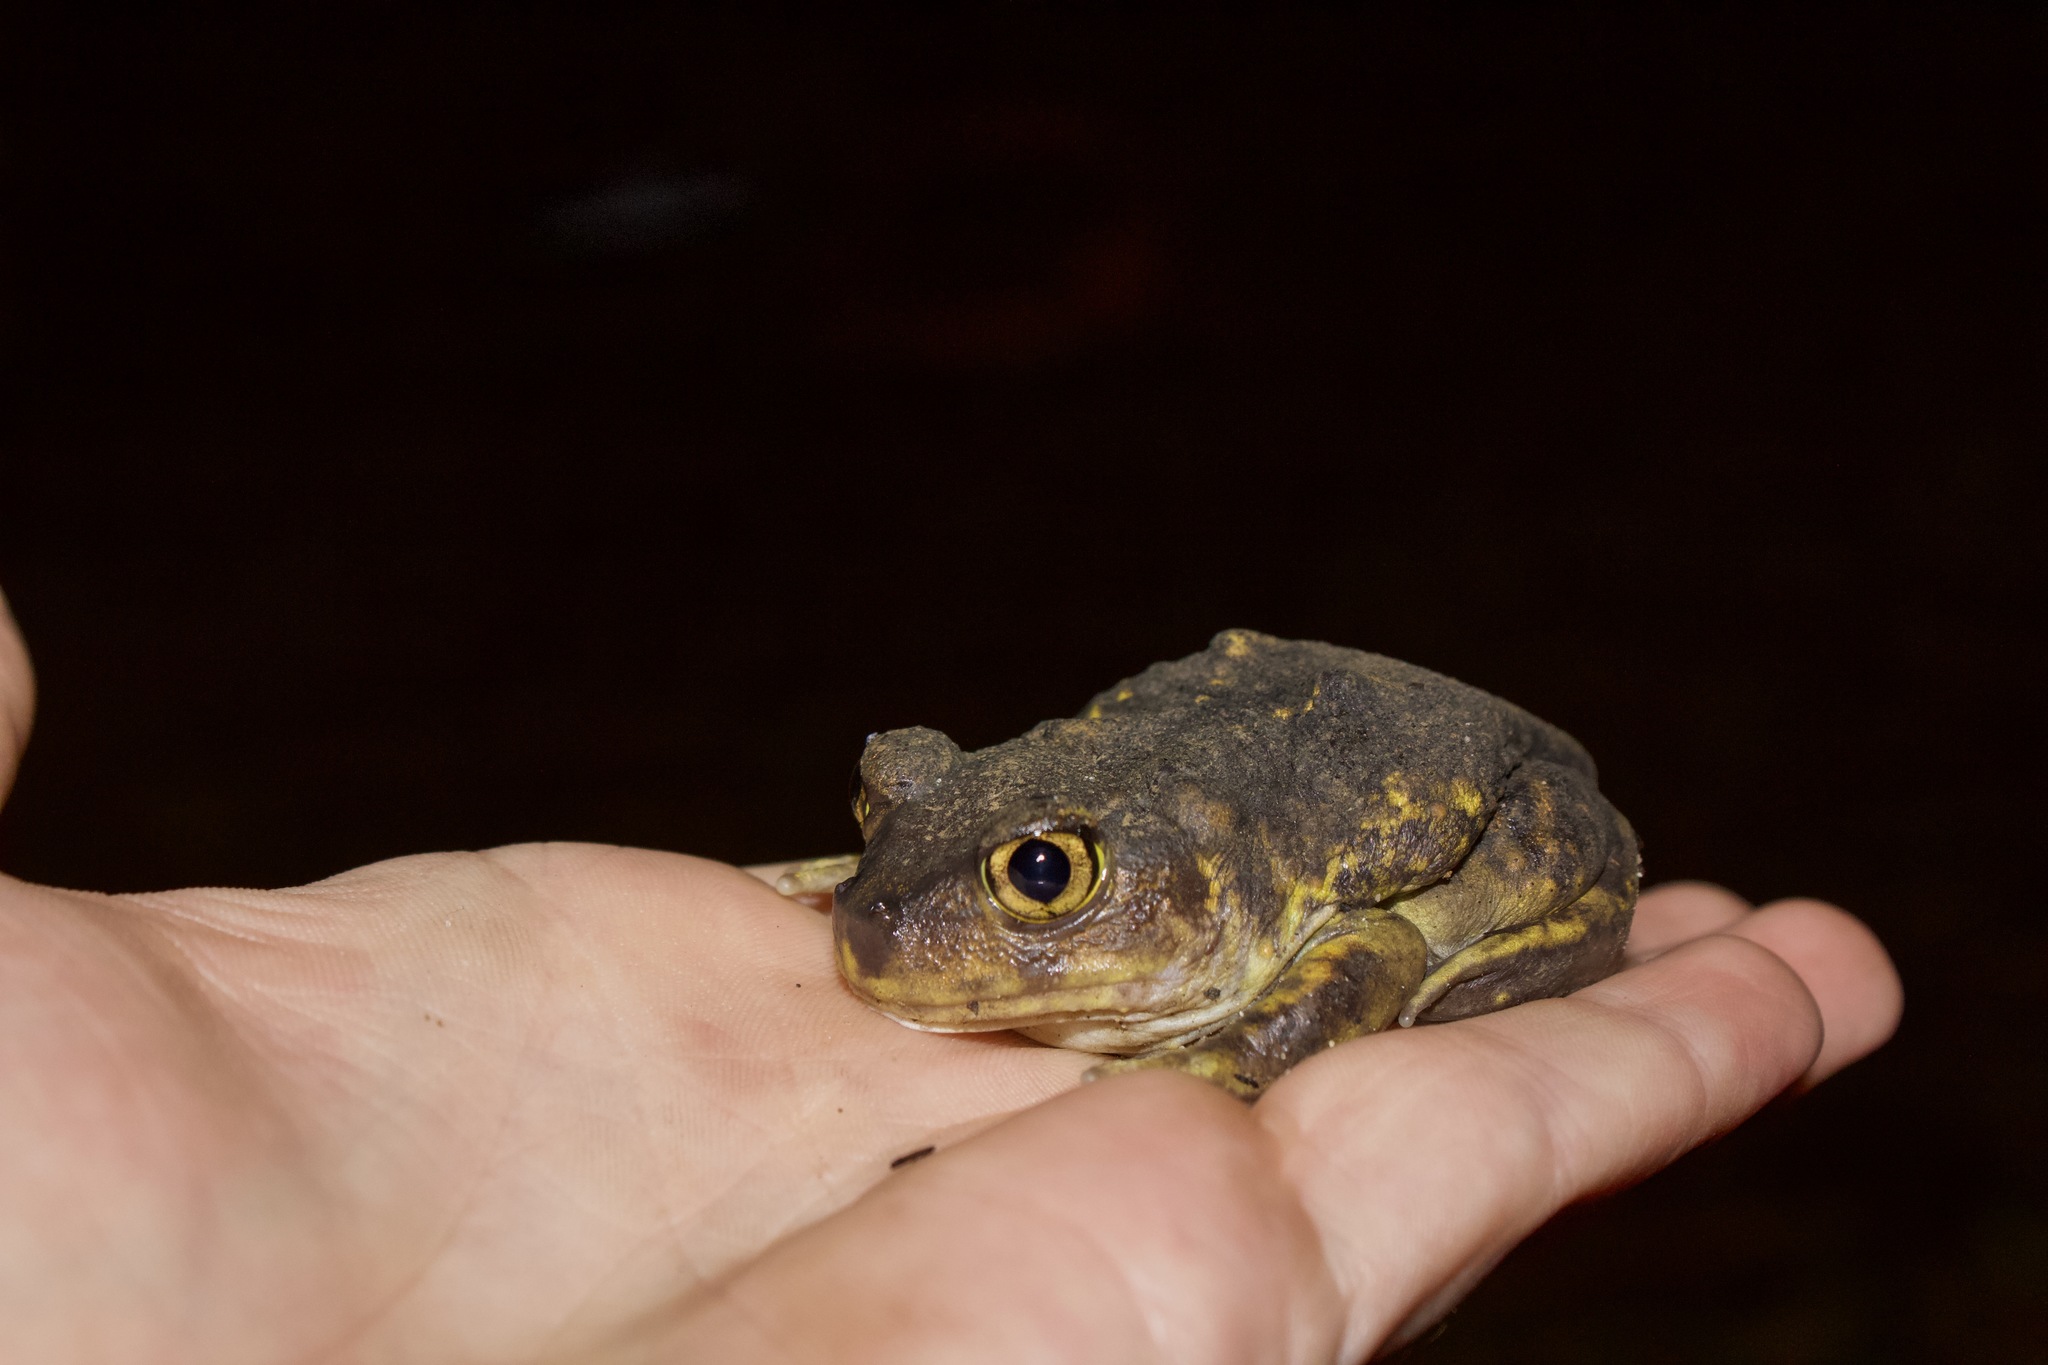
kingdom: Animalia
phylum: Chordata
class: Amphibia
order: Anura
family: Scaphiopodidae
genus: Scaphiopus
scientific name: Scaphiopus holbrookii
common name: Eastern spadefoot toad
